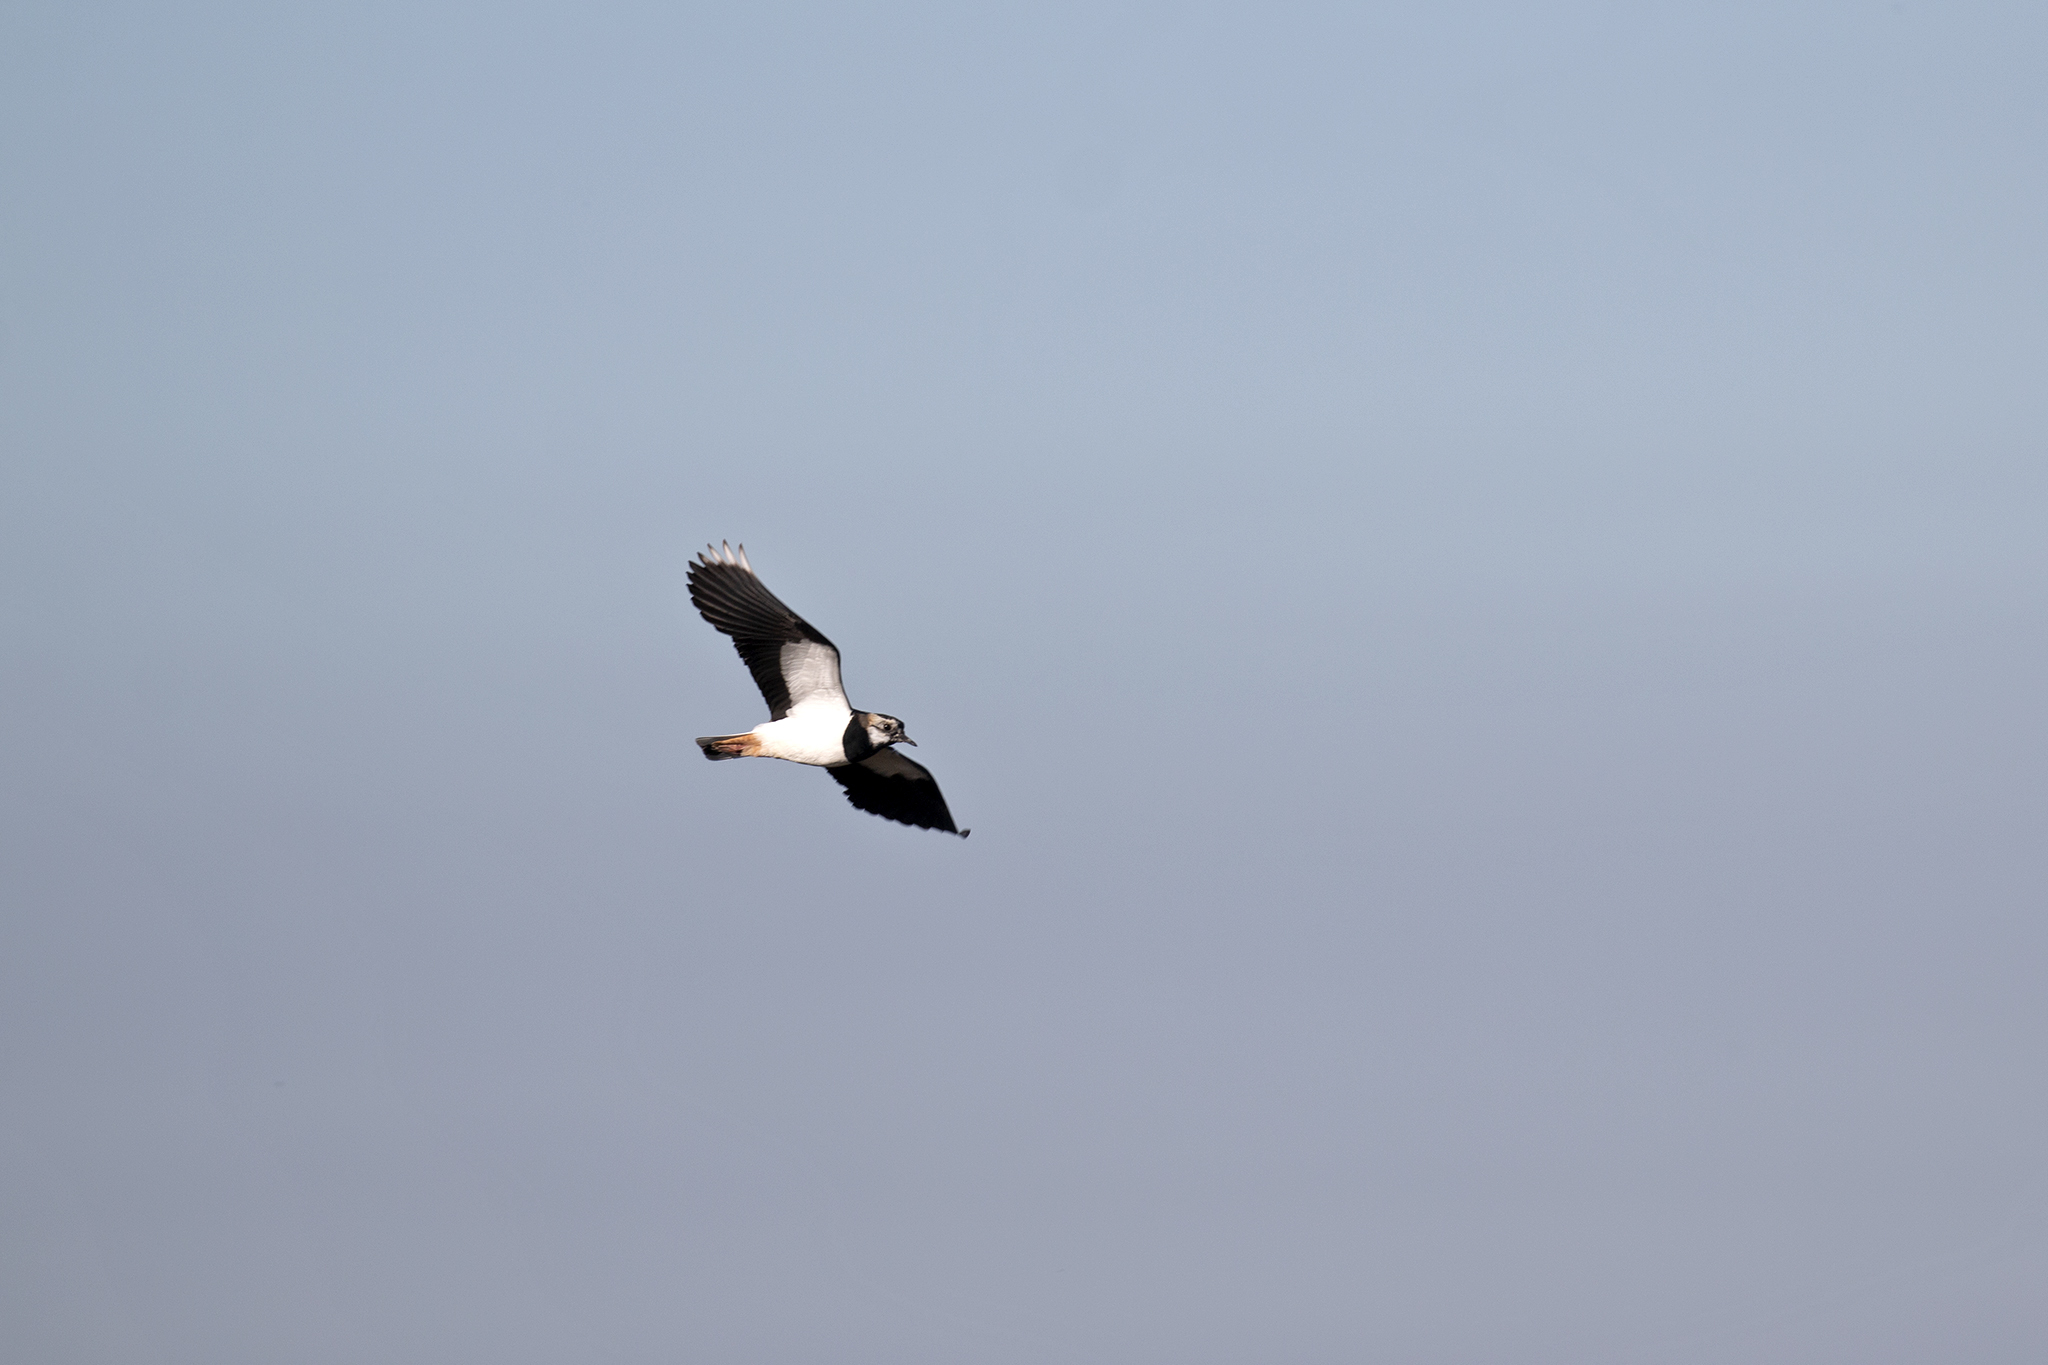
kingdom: Animalia
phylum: Chordata
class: Aves
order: Charadriiformes
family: Charadriidae
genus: Vanellus
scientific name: Vanellus vanellus
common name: Northern lapwing
